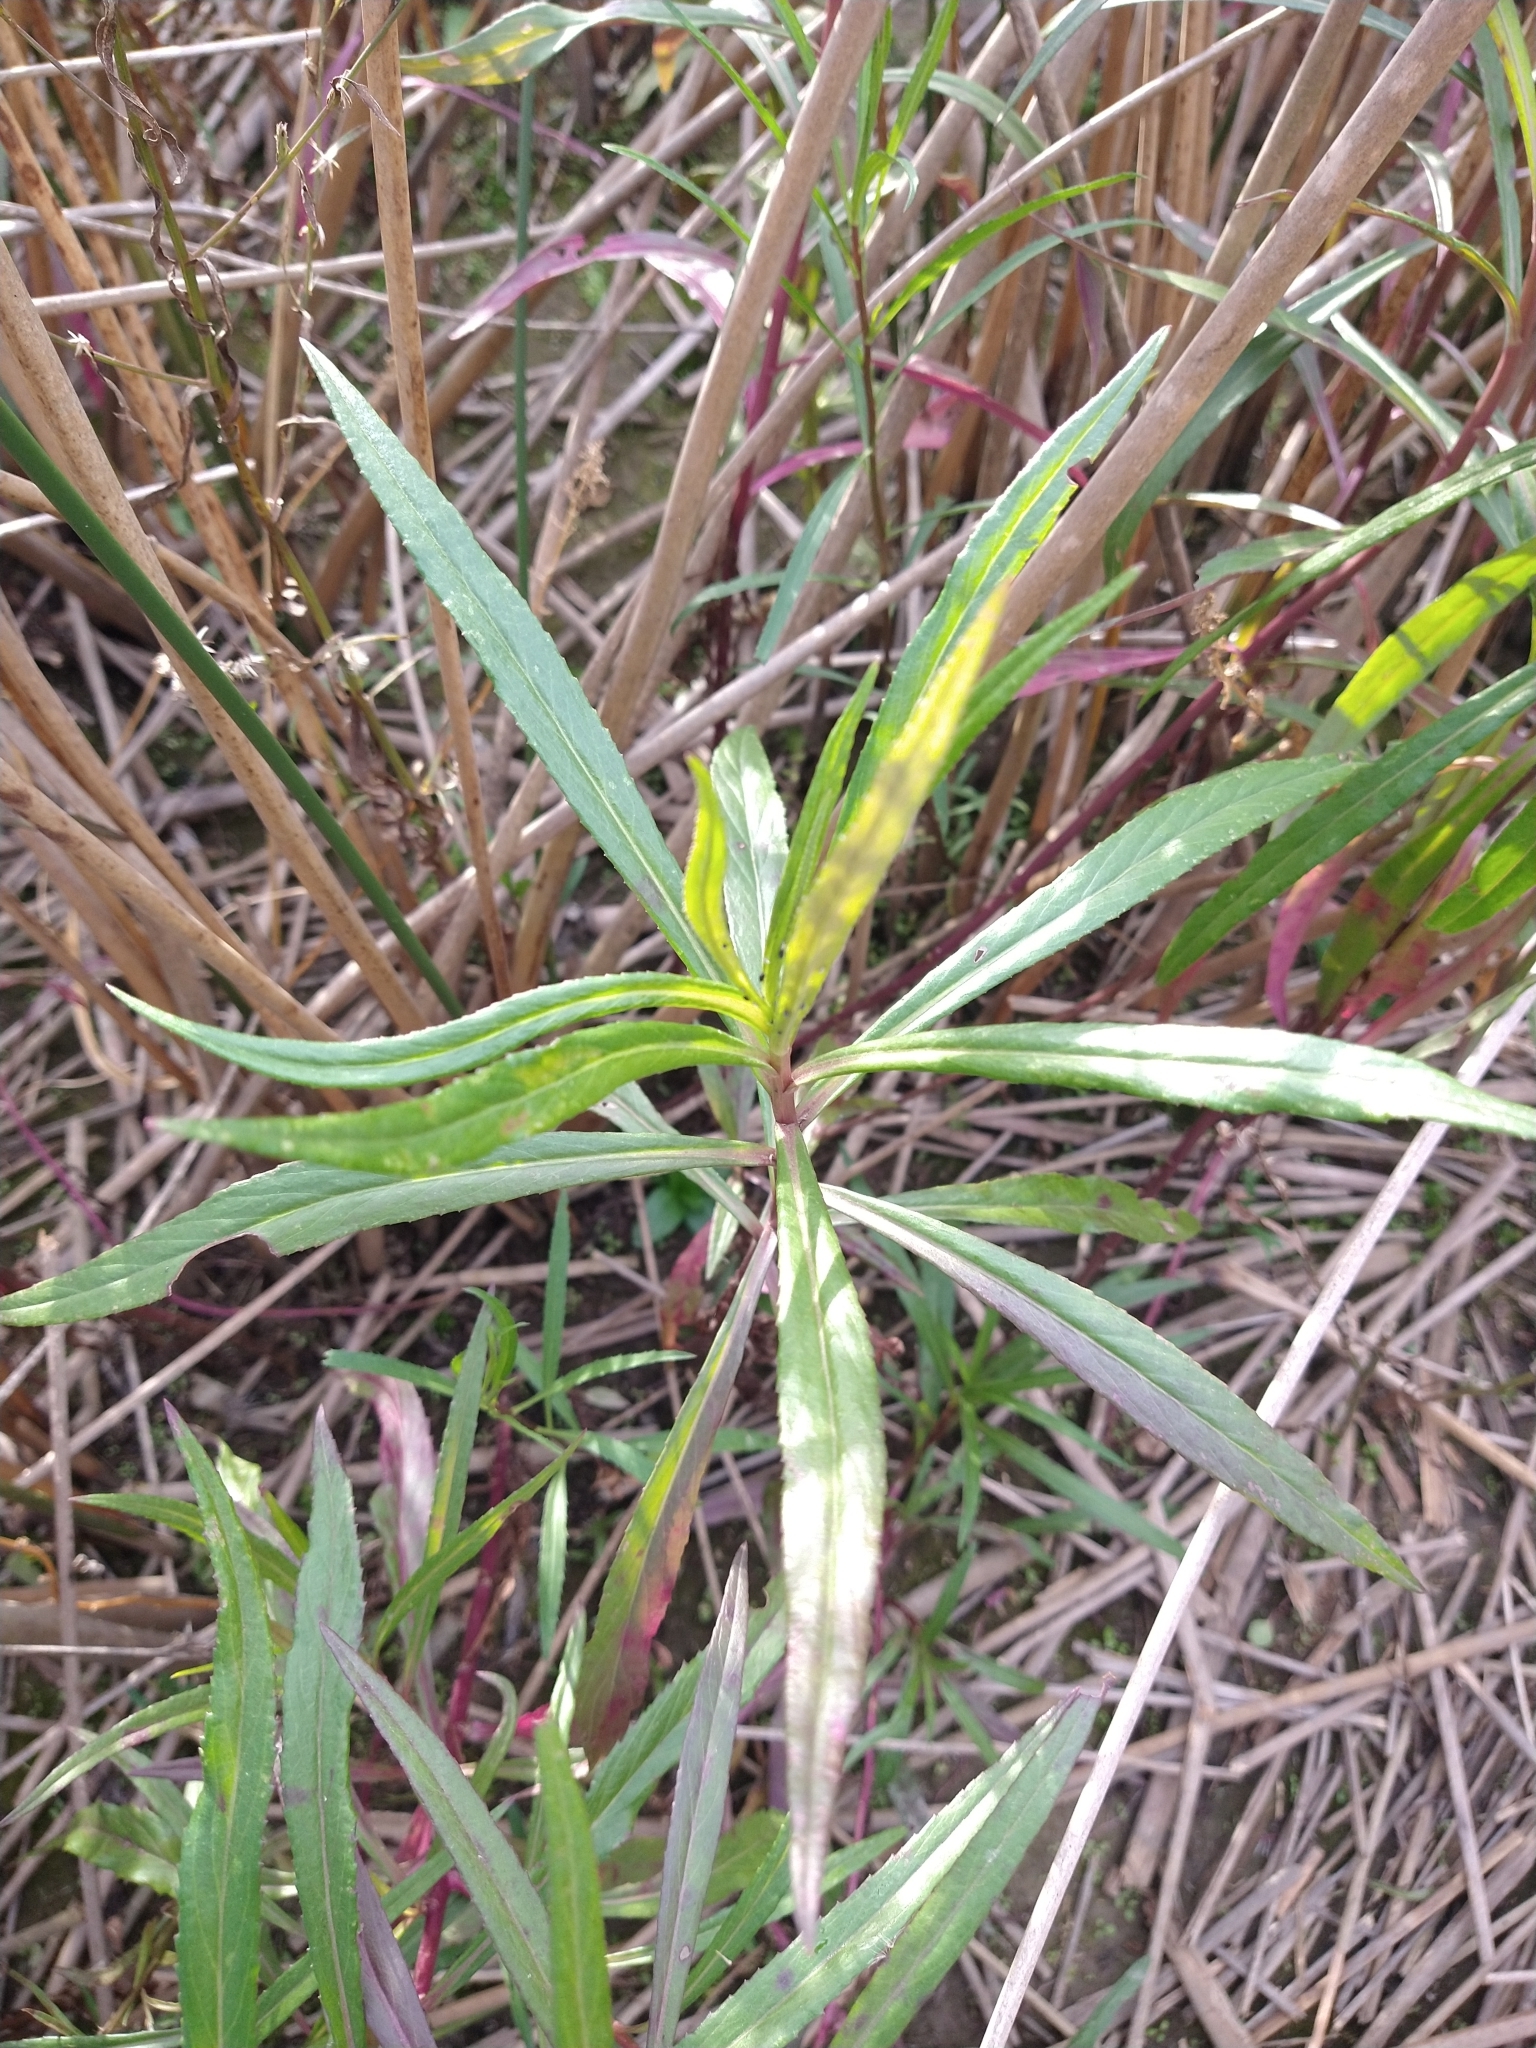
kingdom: Plantae
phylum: Tracheophyta
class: Magnoliopsida
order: Asterales
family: Asteraceae
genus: Solidago
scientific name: Solidago chilensis
